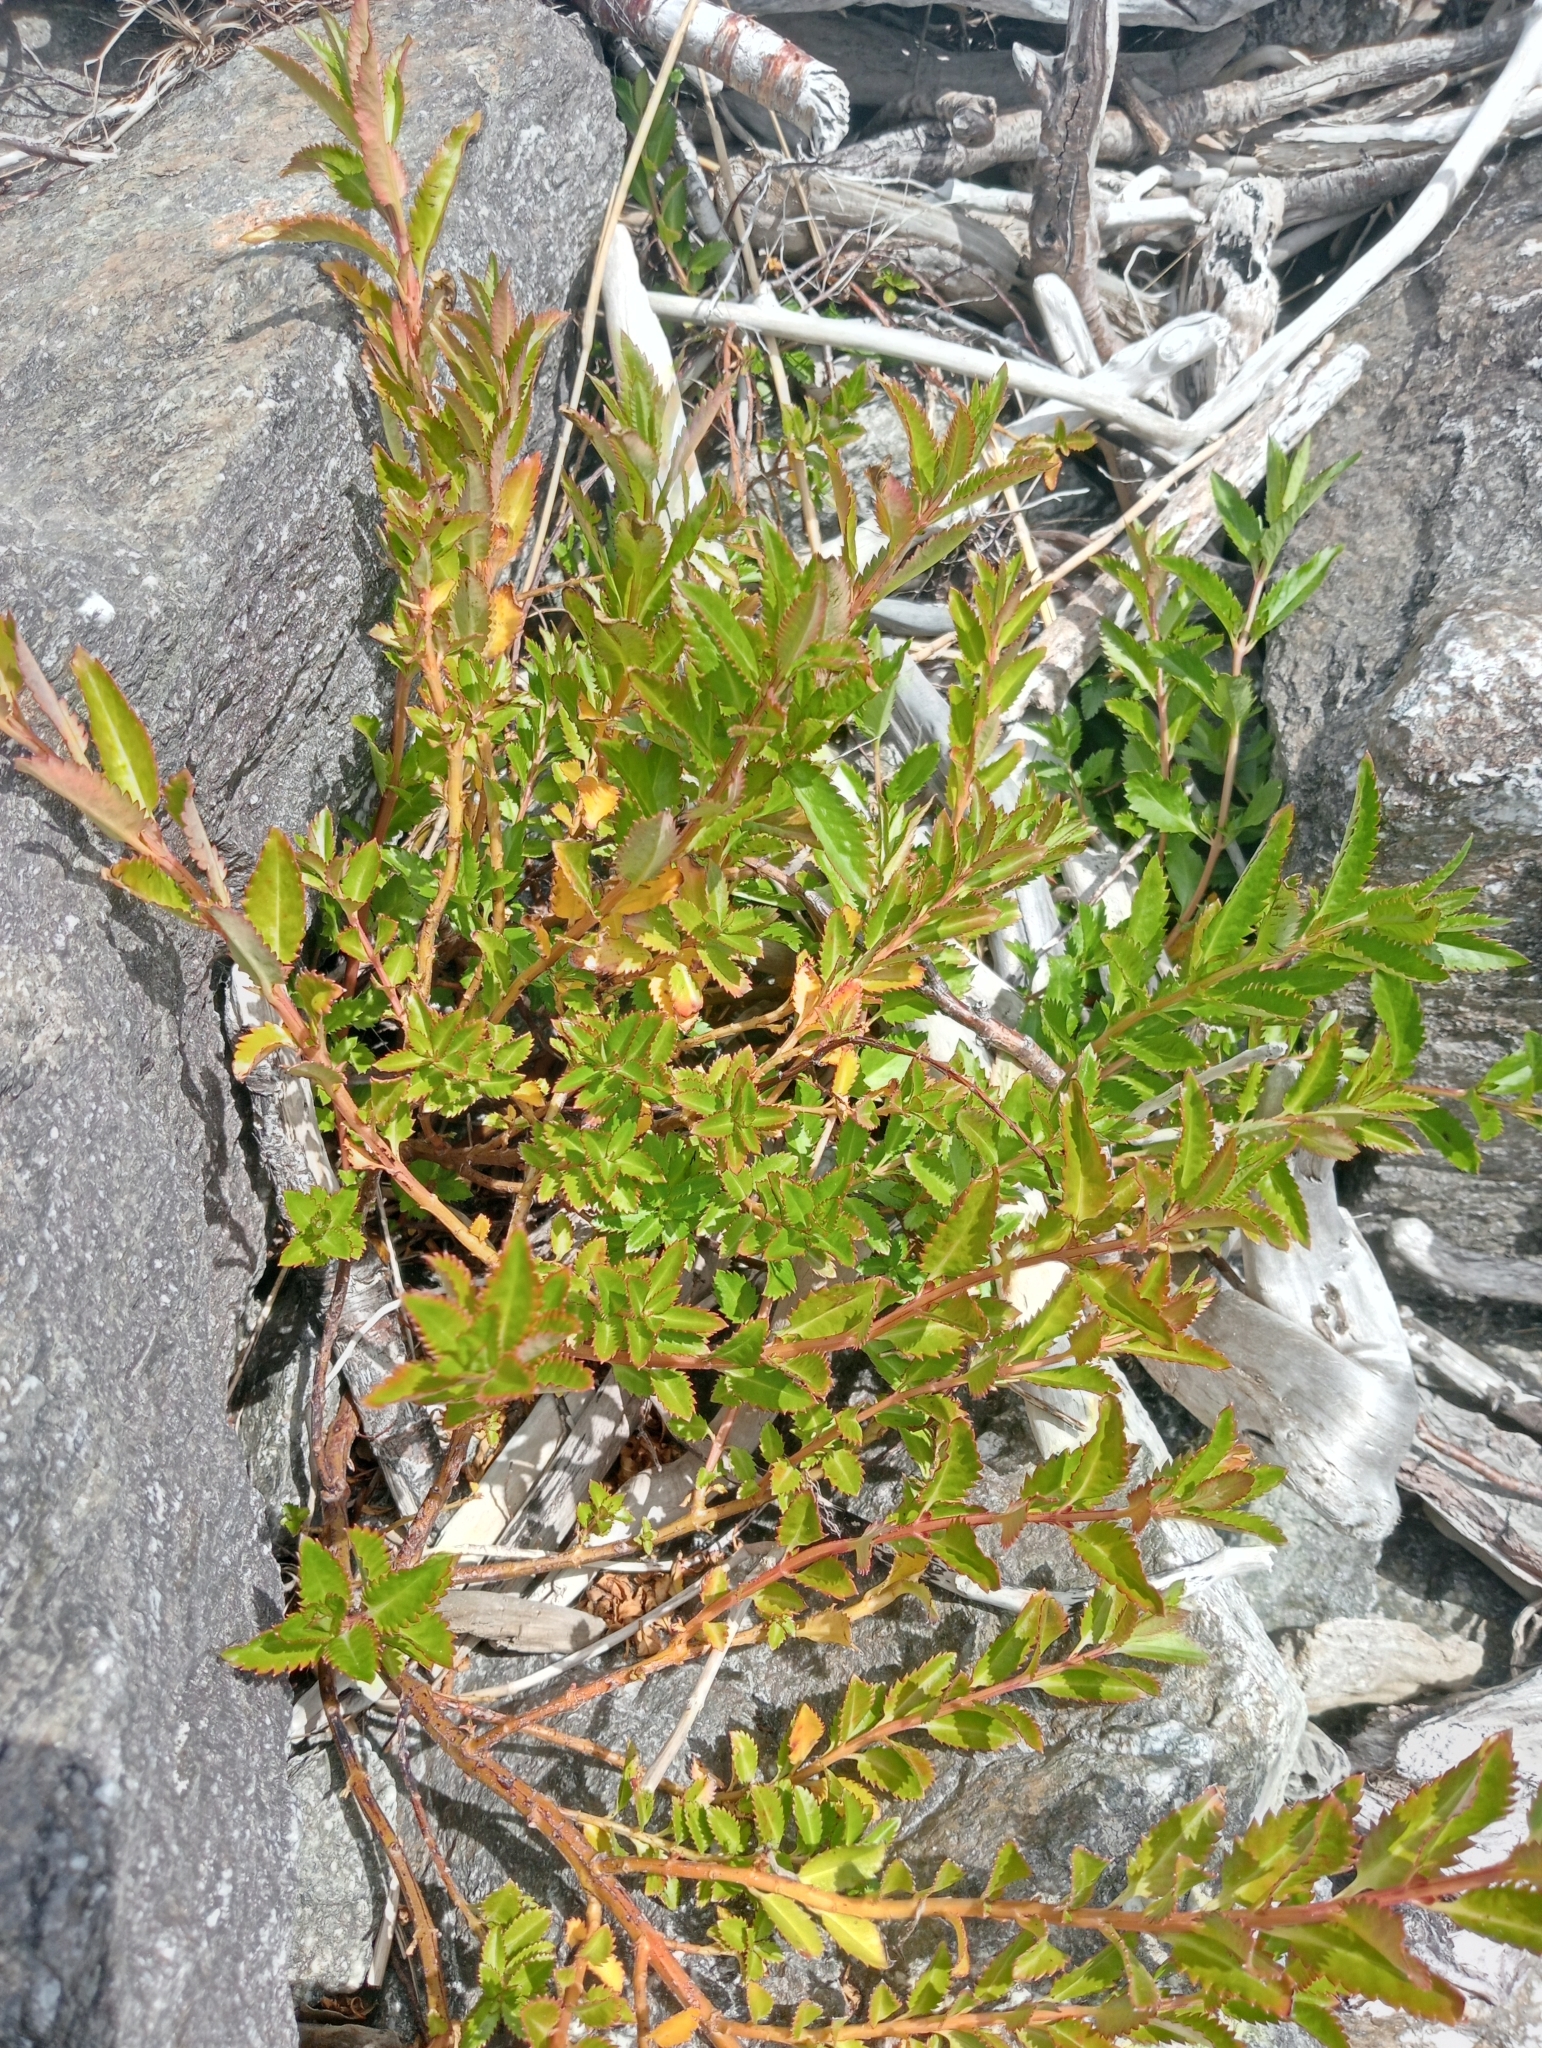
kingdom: Plantae
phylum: Tracheophyta
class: Magnoliopsida
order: Saxifragales
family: Haloragaceae
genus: Haloragis
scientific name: Haloragis erecta
